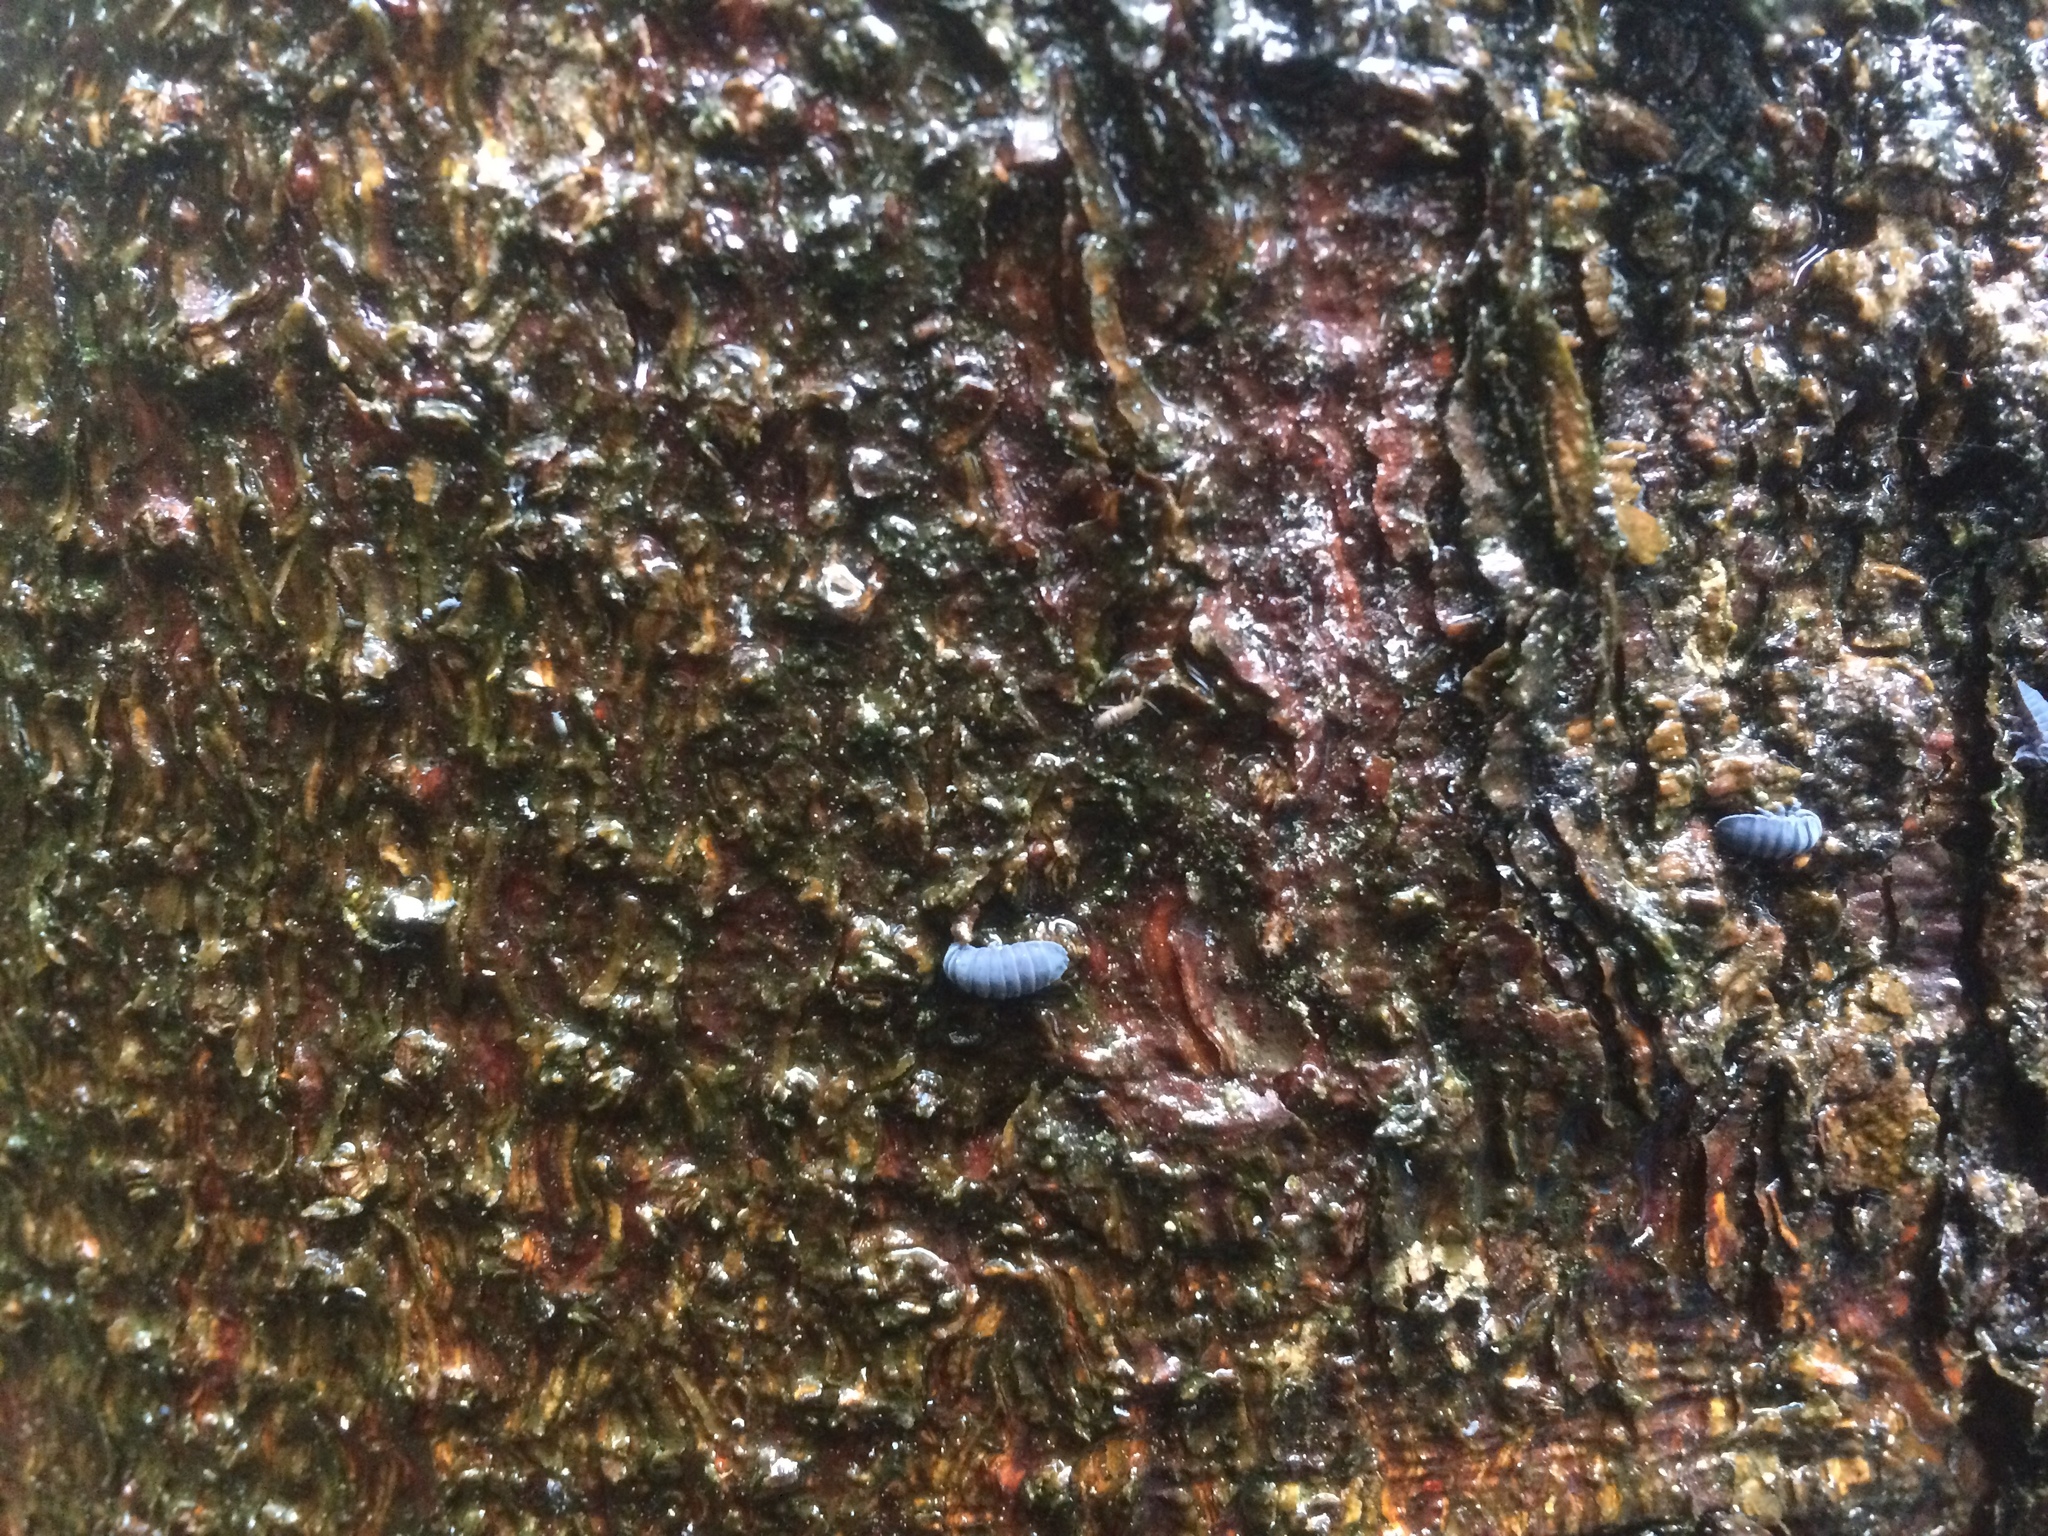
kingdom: Animalia
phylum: Arthropoda
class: Collembola
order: Poduromorpha
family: Onychiuridae
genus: Tetrodontophora
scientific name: Tetrodontophora bielanensis
